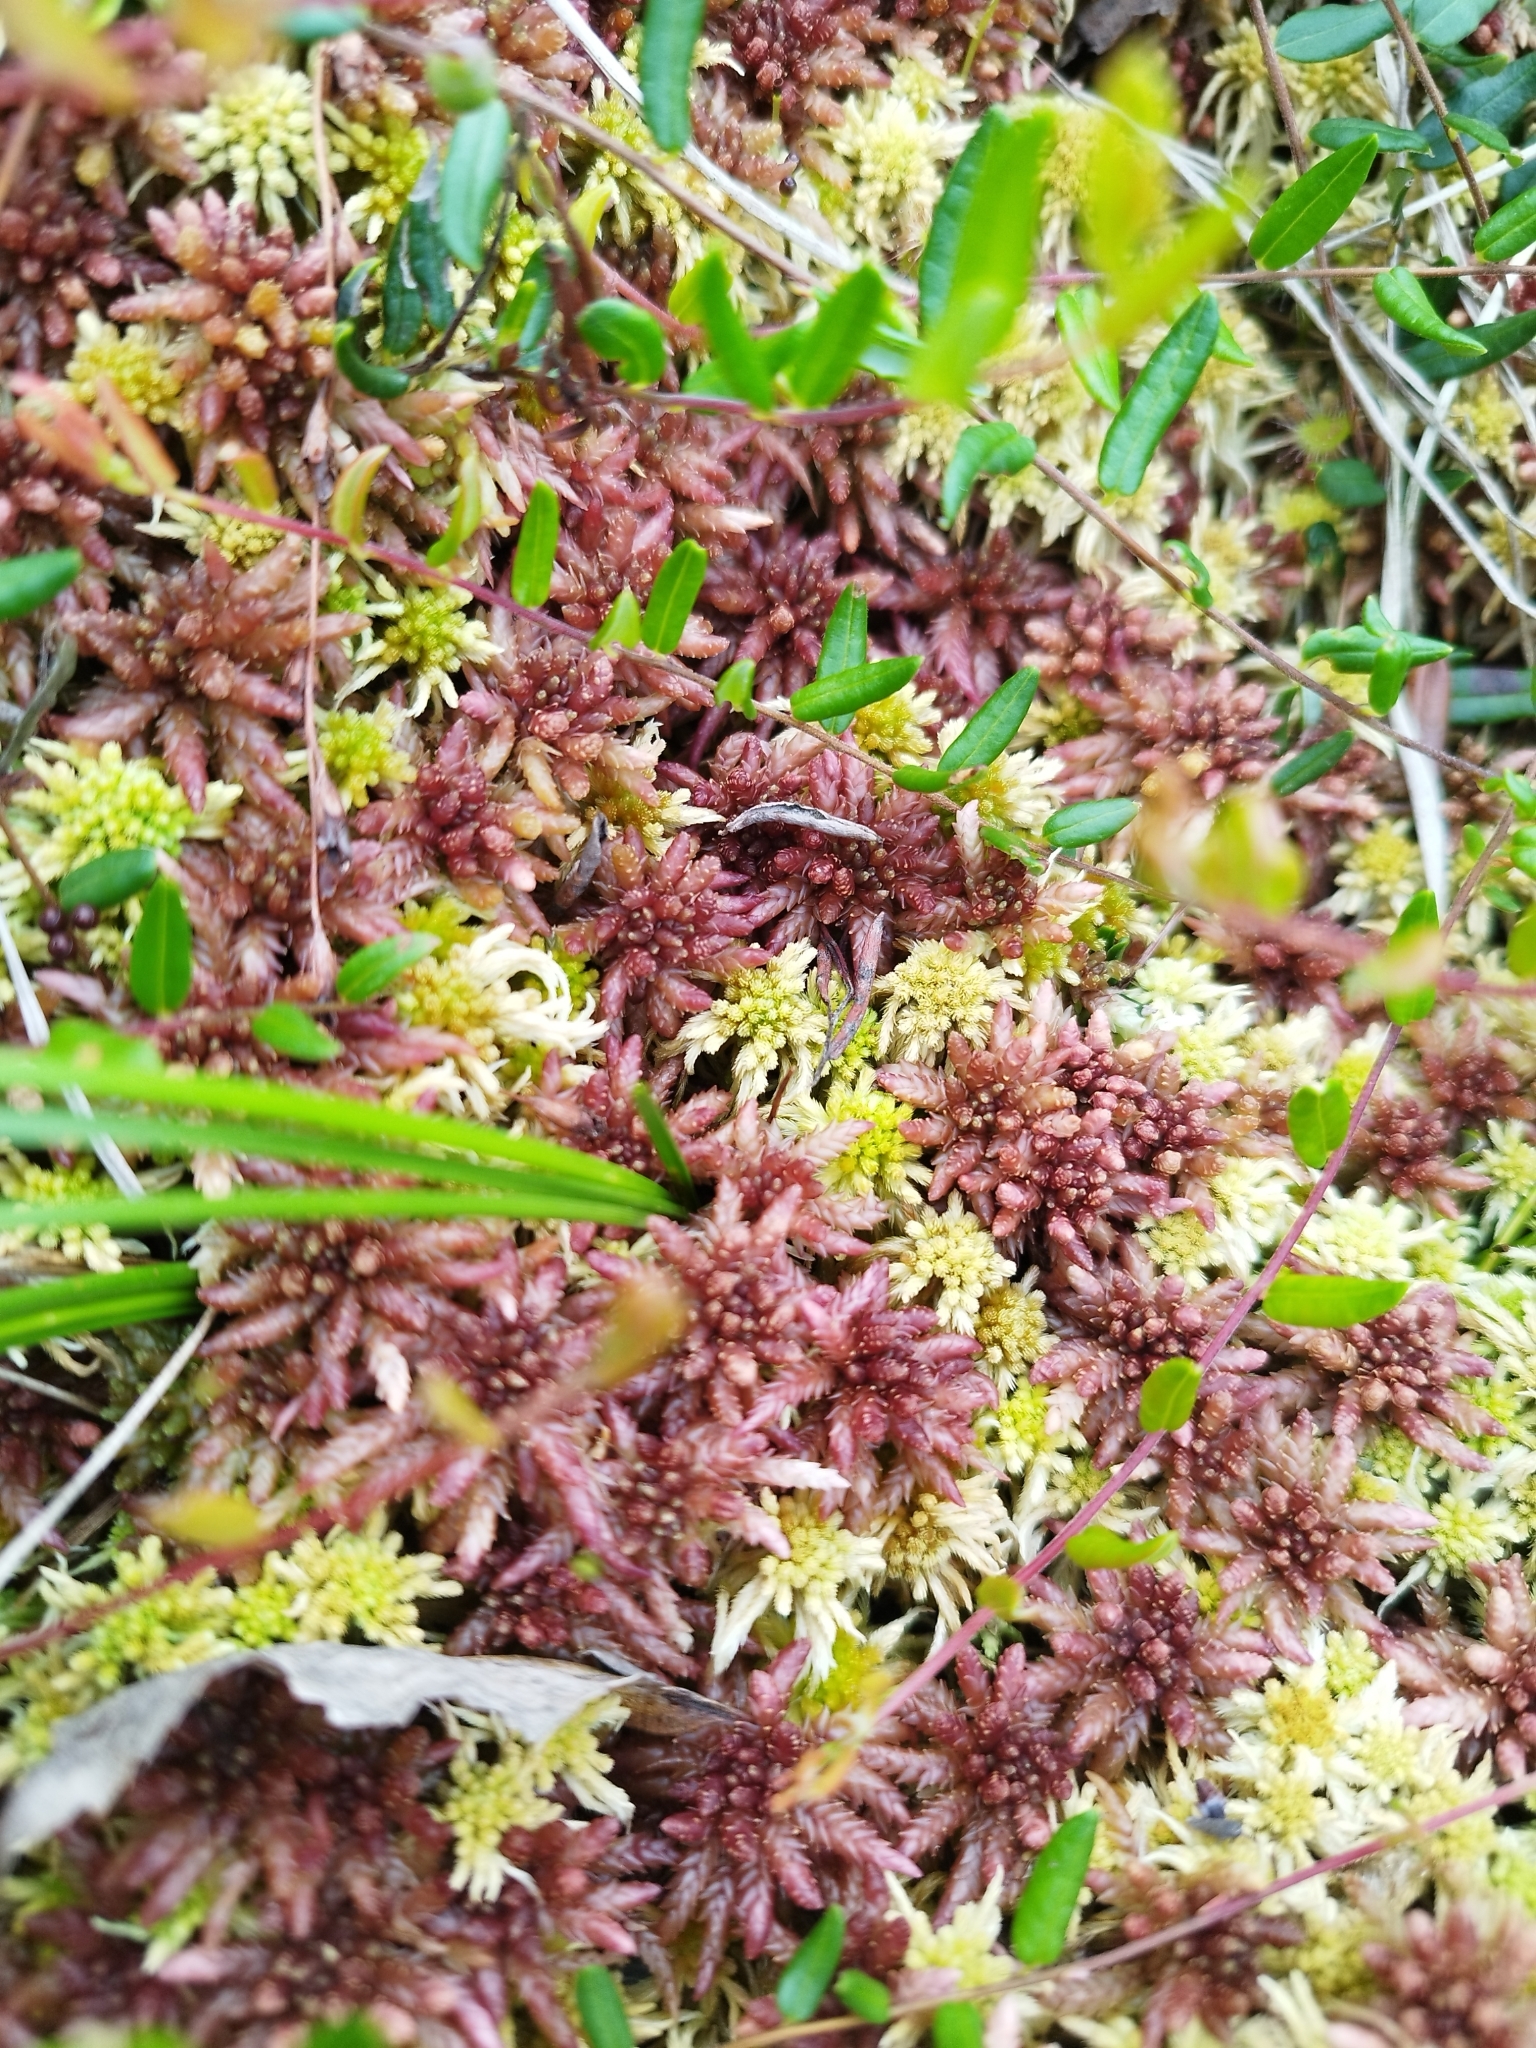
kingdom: Plantae
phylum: Bryophyta
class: Sphagnopsida
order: Sphagnales
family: Sphagnaceae
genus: Sphagnum
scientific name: Sphagnum divinum
